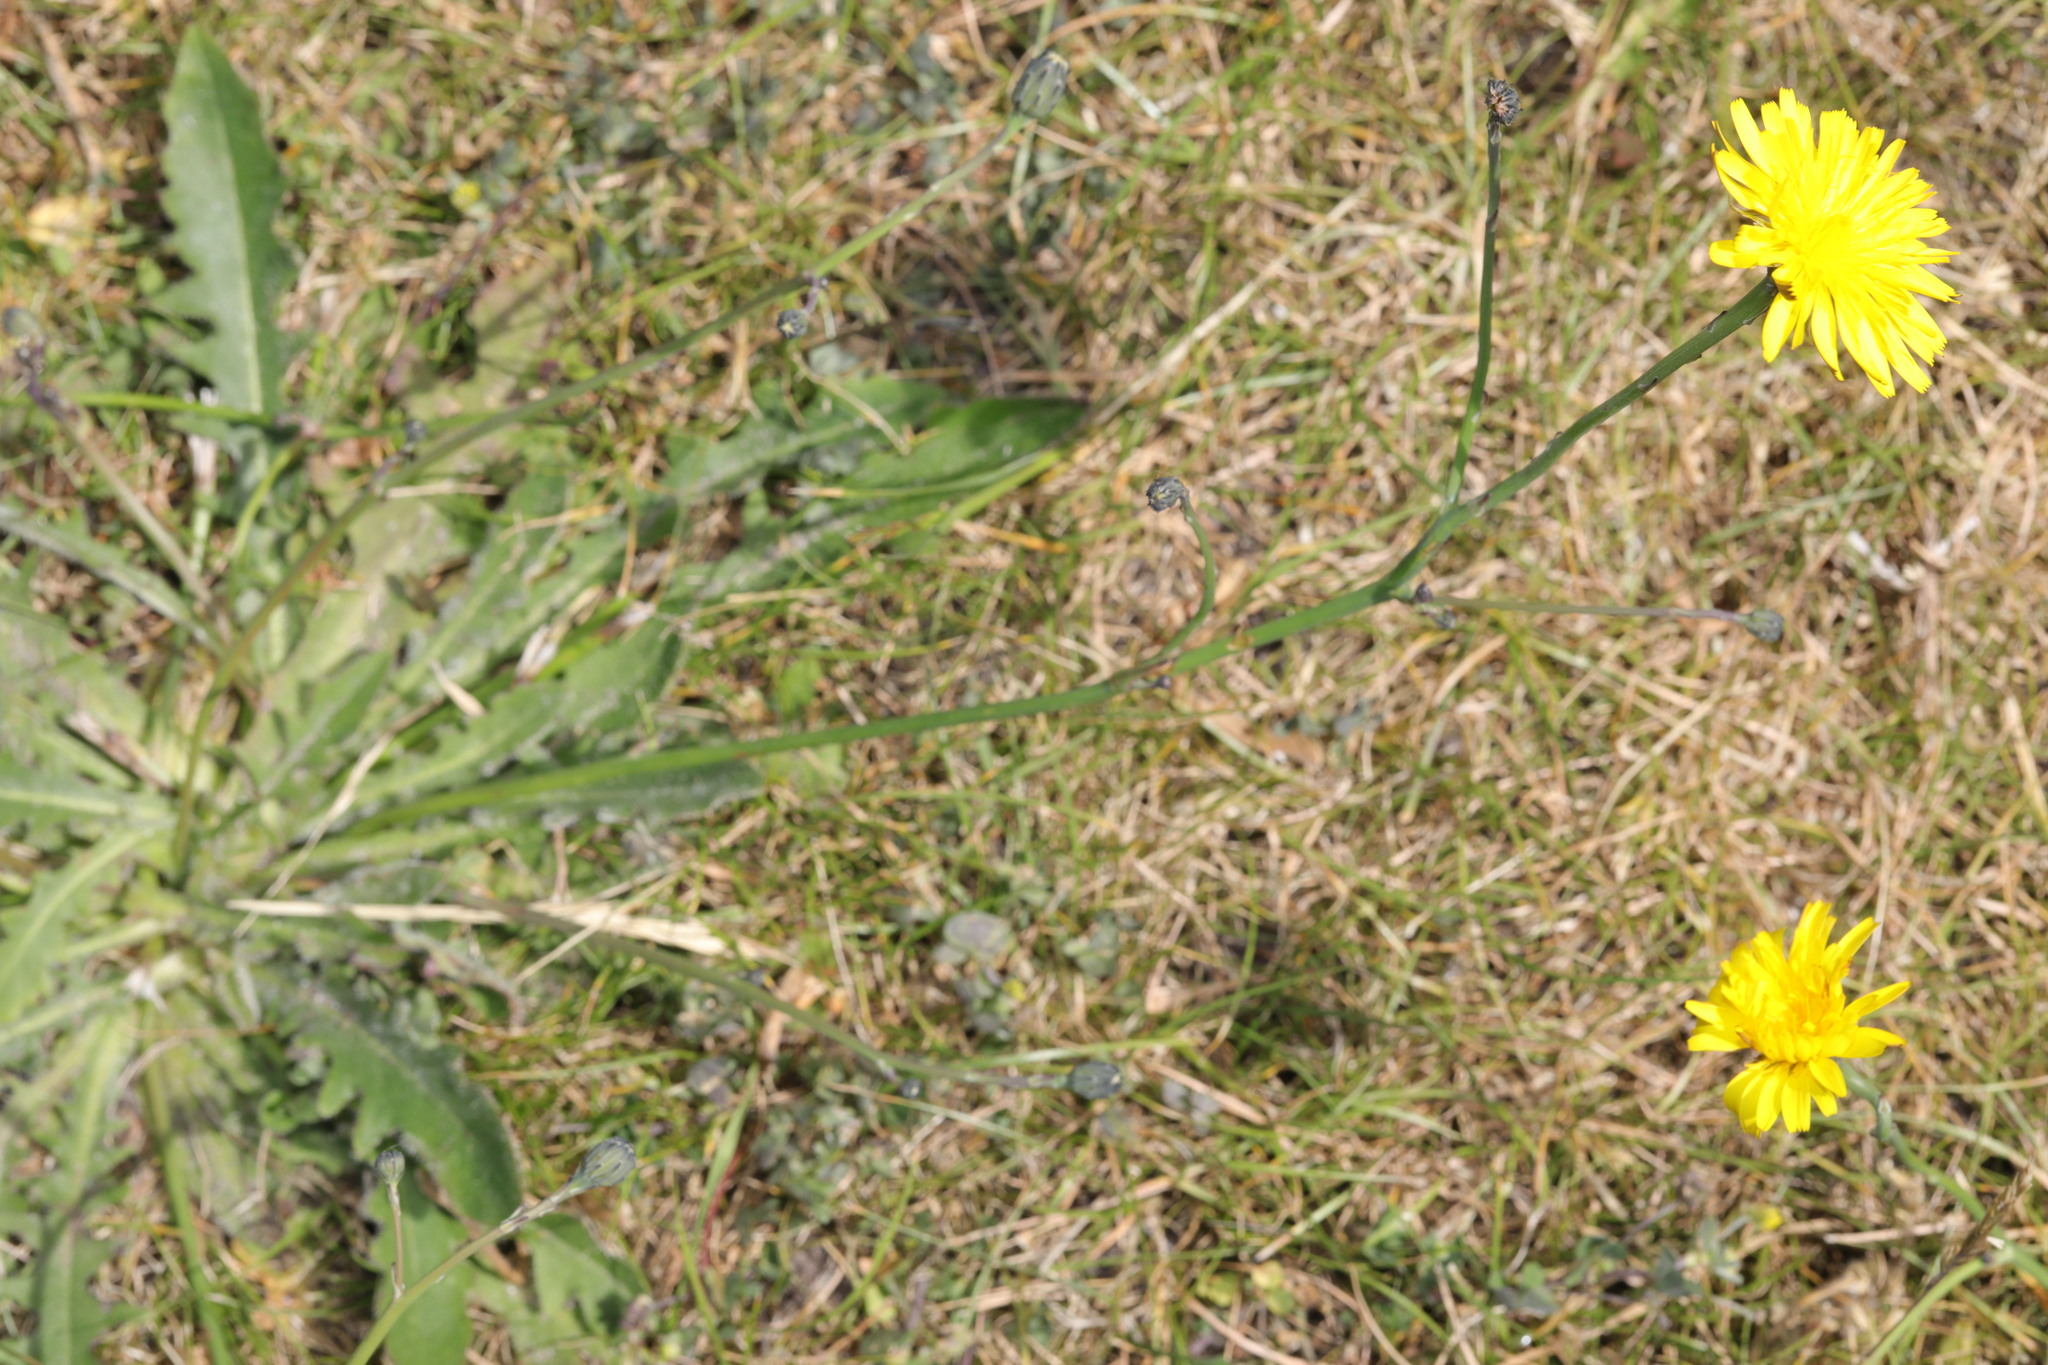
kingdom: Plantae
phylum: Tracheophyta
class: Magnoliopsida
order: Asterales
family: Asteraceae
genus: Hypochaeris
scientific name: Hypochaeris radicata
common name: Flatweed
